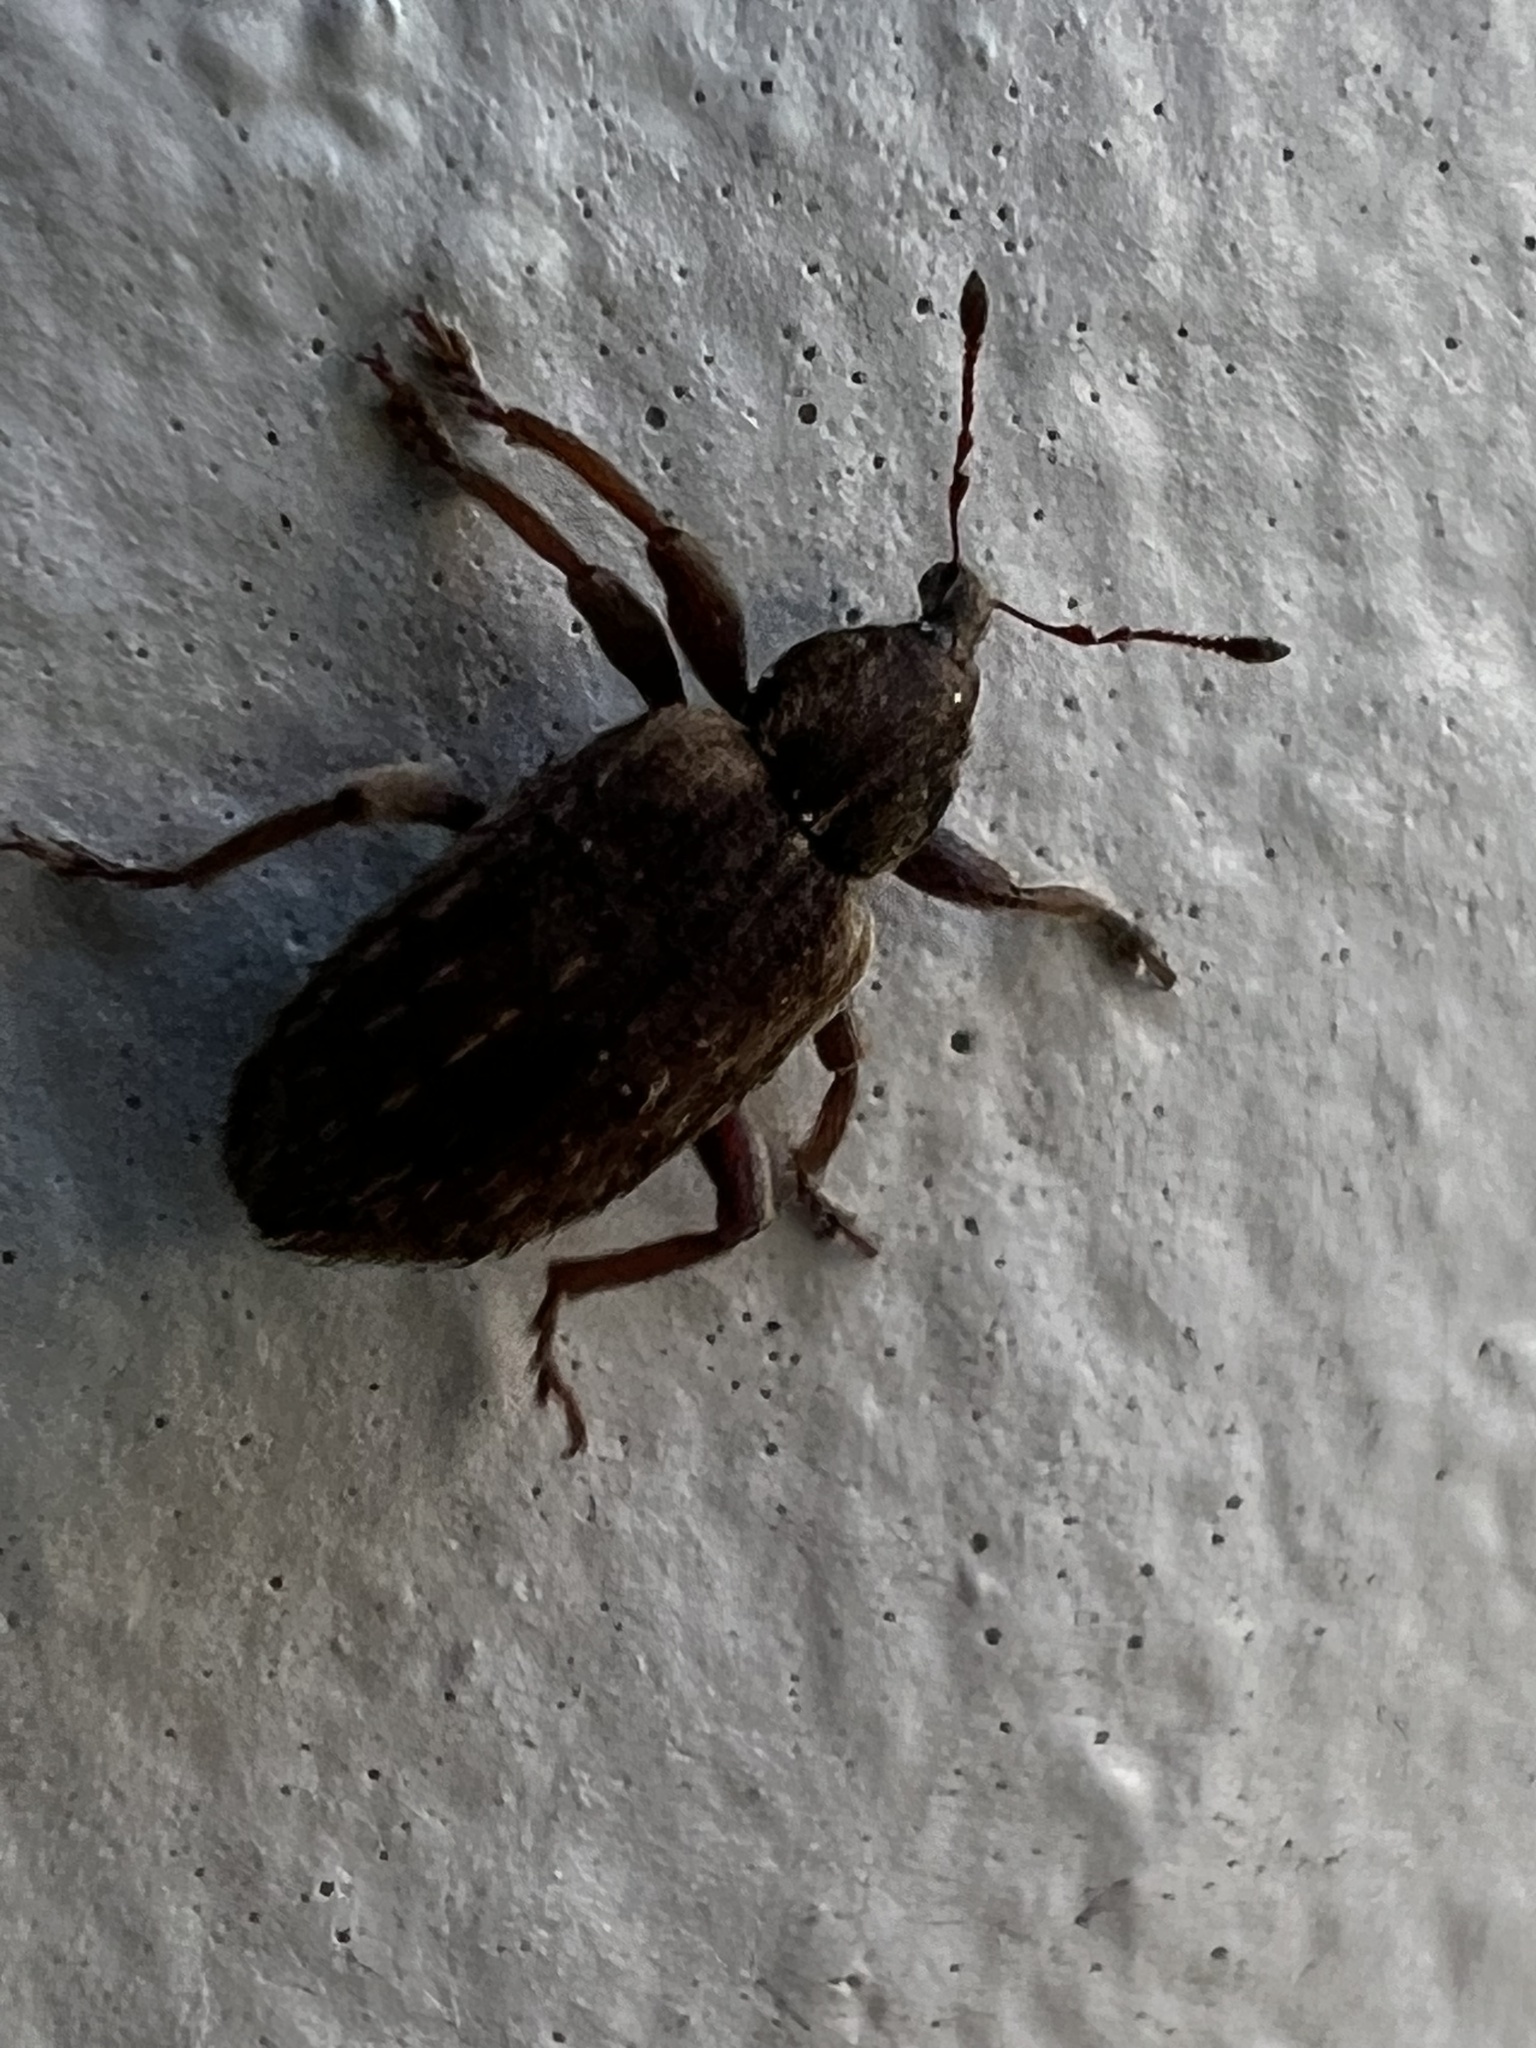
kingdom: Animalia
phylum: Arthropoda
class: Insecta
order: Coleoptera
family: Curculionidae
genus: Hypera
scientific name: Hypera postica
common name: Weevil
